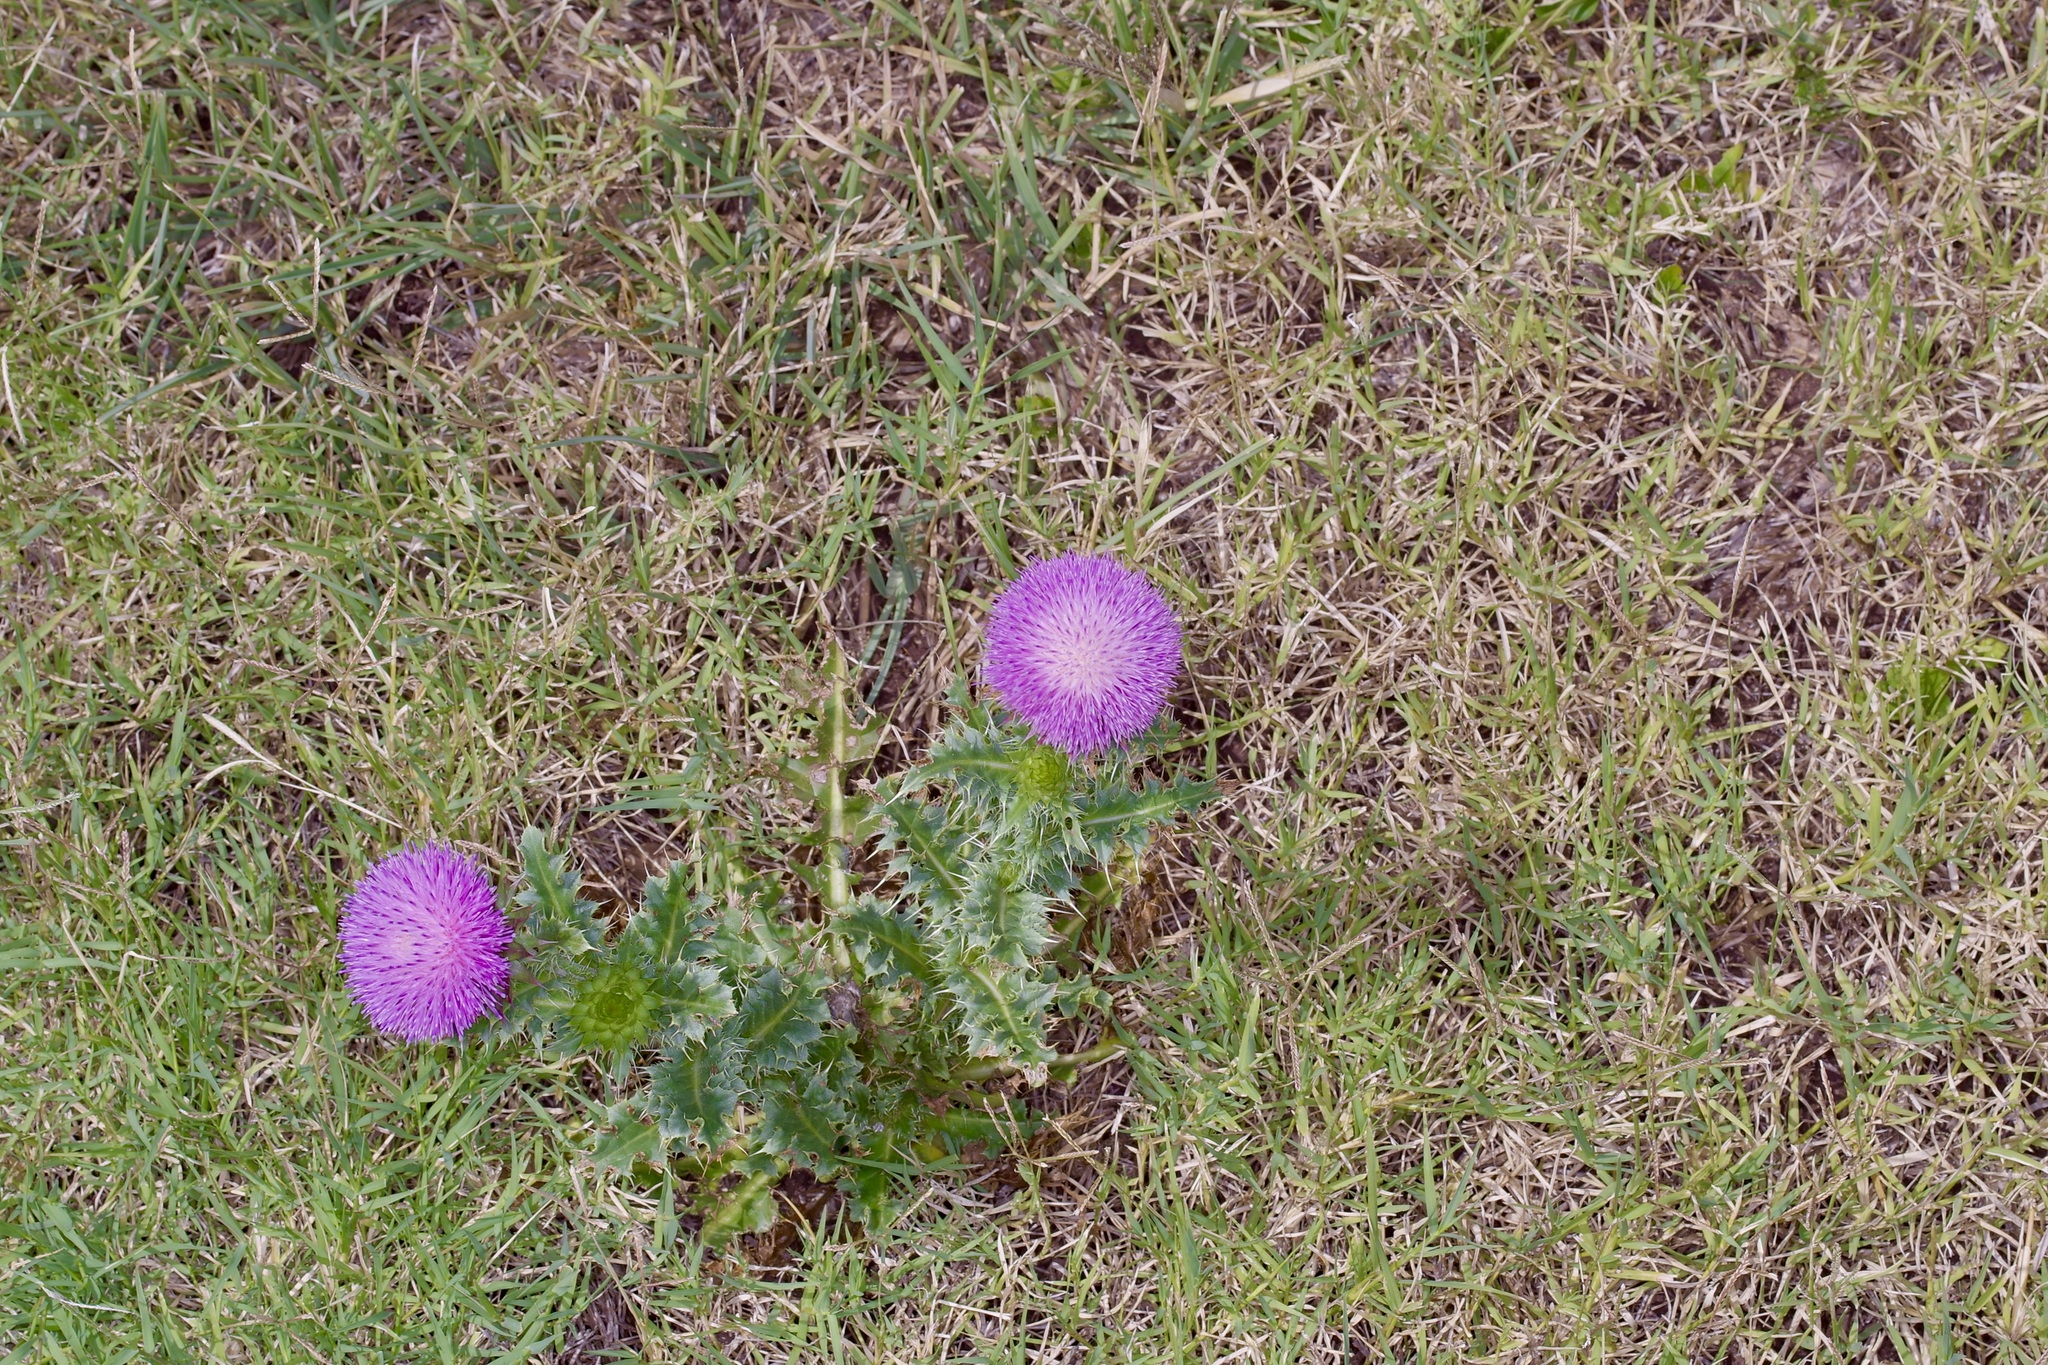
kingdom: Plantae
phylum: Tracheophyta
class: Magnoliopsida
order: Asterales
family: Asteraceae
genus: Carduus
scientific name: Carduus nutans
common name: Musk thistle
